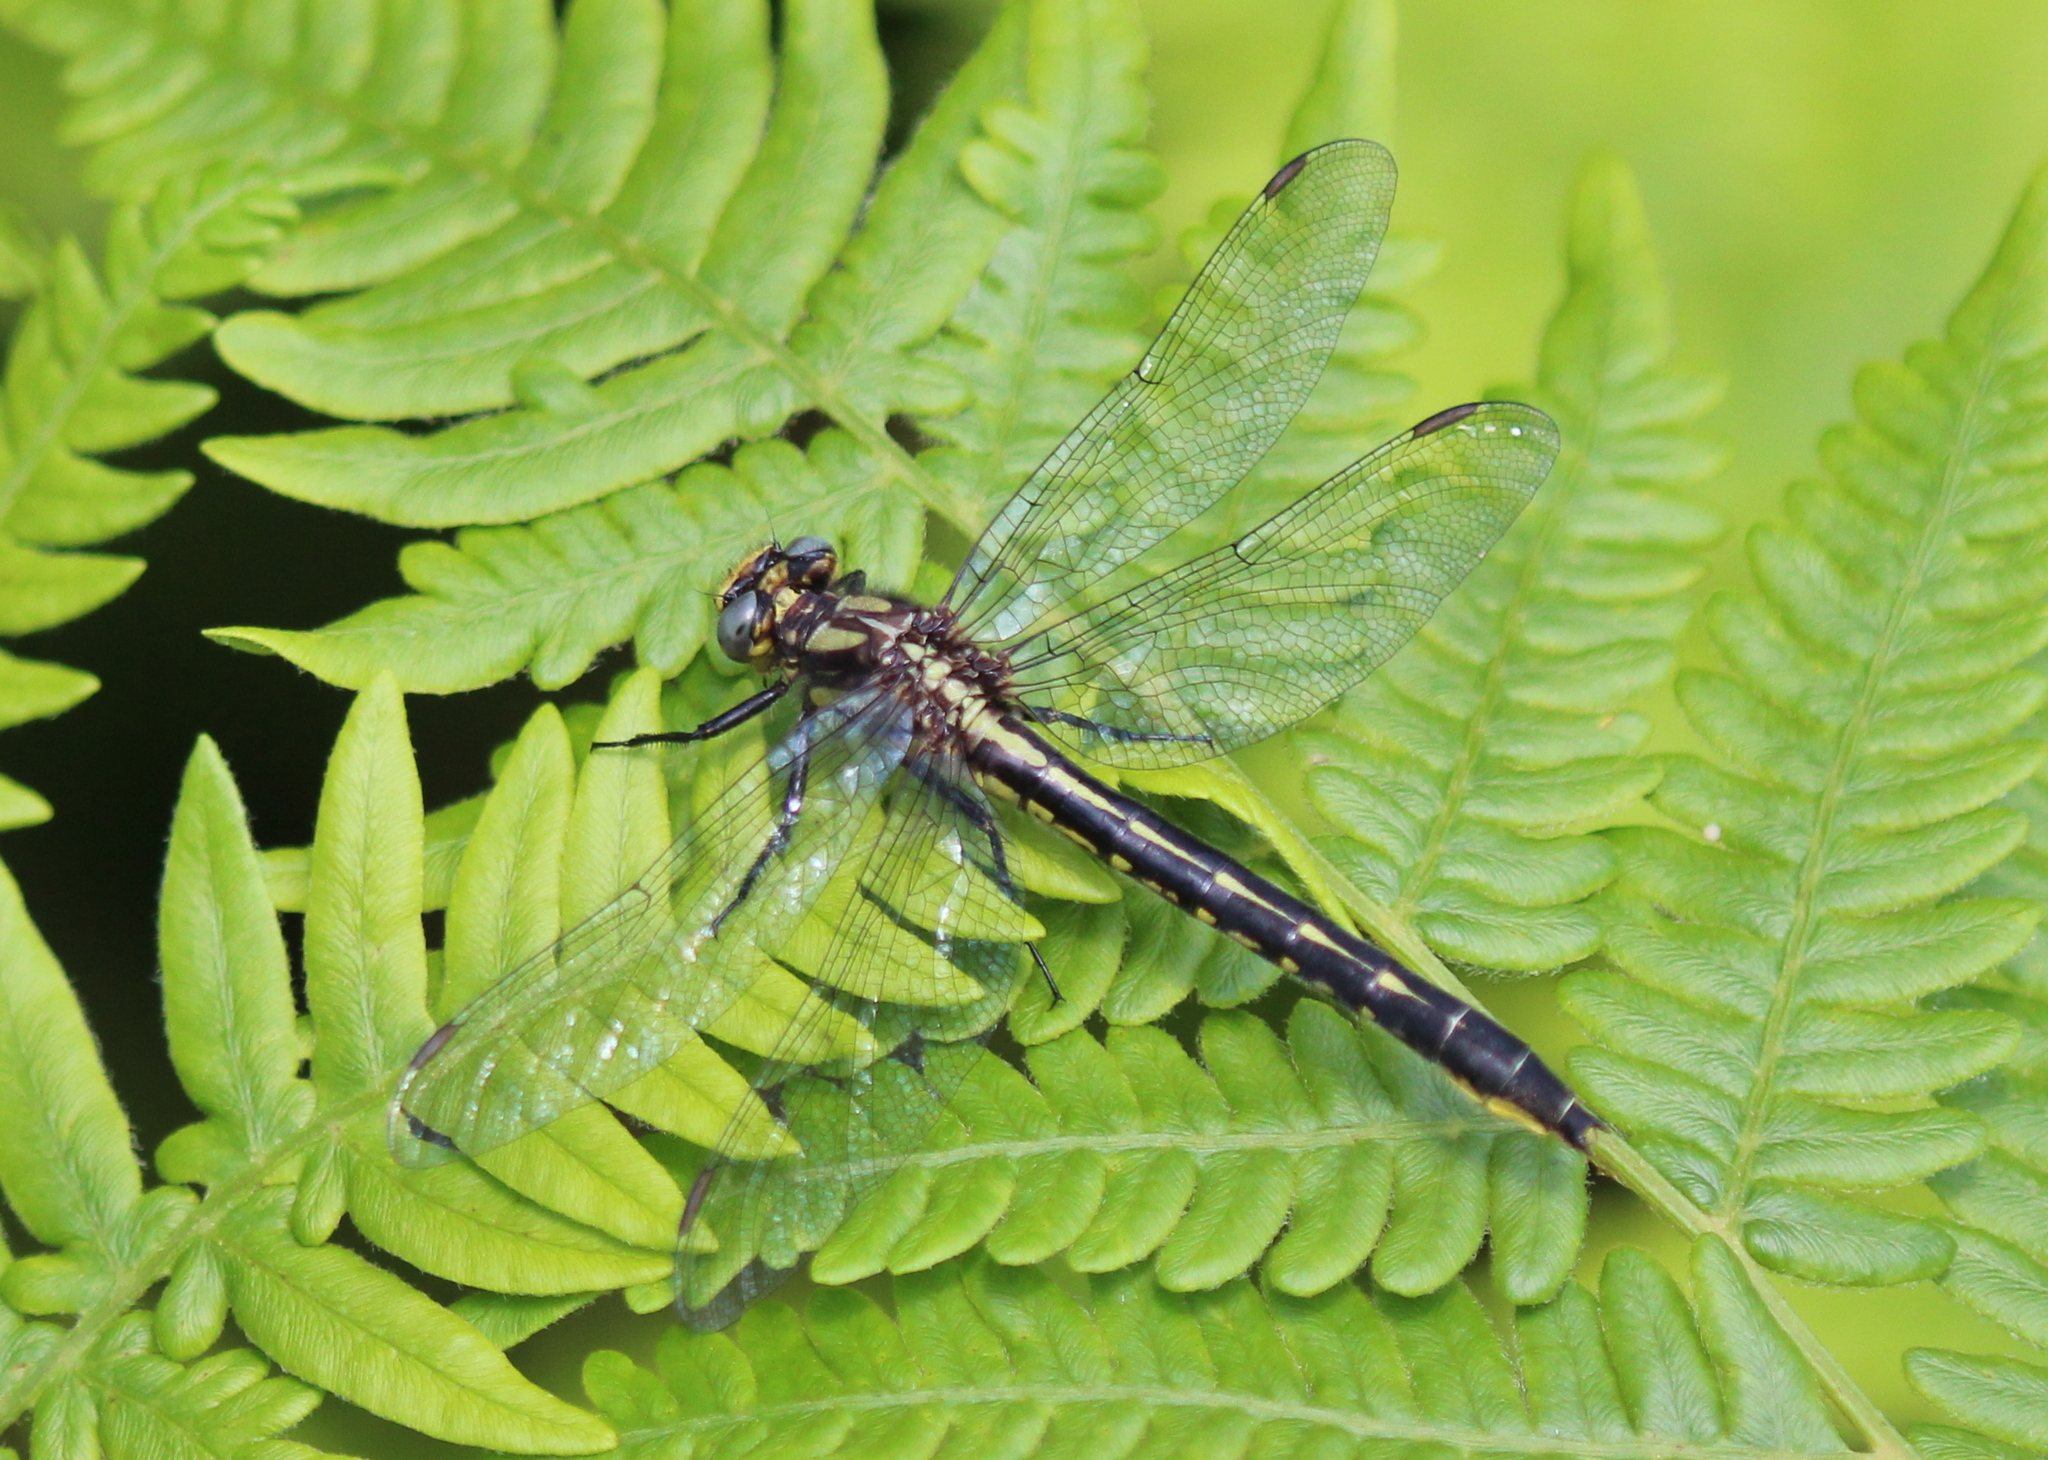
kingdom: Animalia
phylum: Arthropoda
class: Insecta
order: Odonata
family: Gomphidae
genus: Phanogomphus
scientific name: Phanogomphus borealis
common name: Beaverpond clubtail
